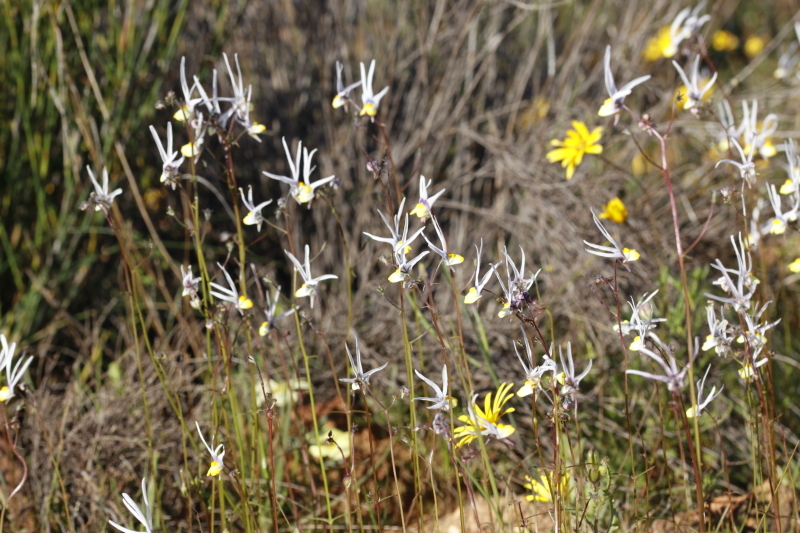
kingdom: Plantae
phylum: Tracheophyta
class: Magnoliopsida
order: Lamiales
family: Scrophulariaceae
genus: Nemesia
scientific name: Nemesia cheiranthus
